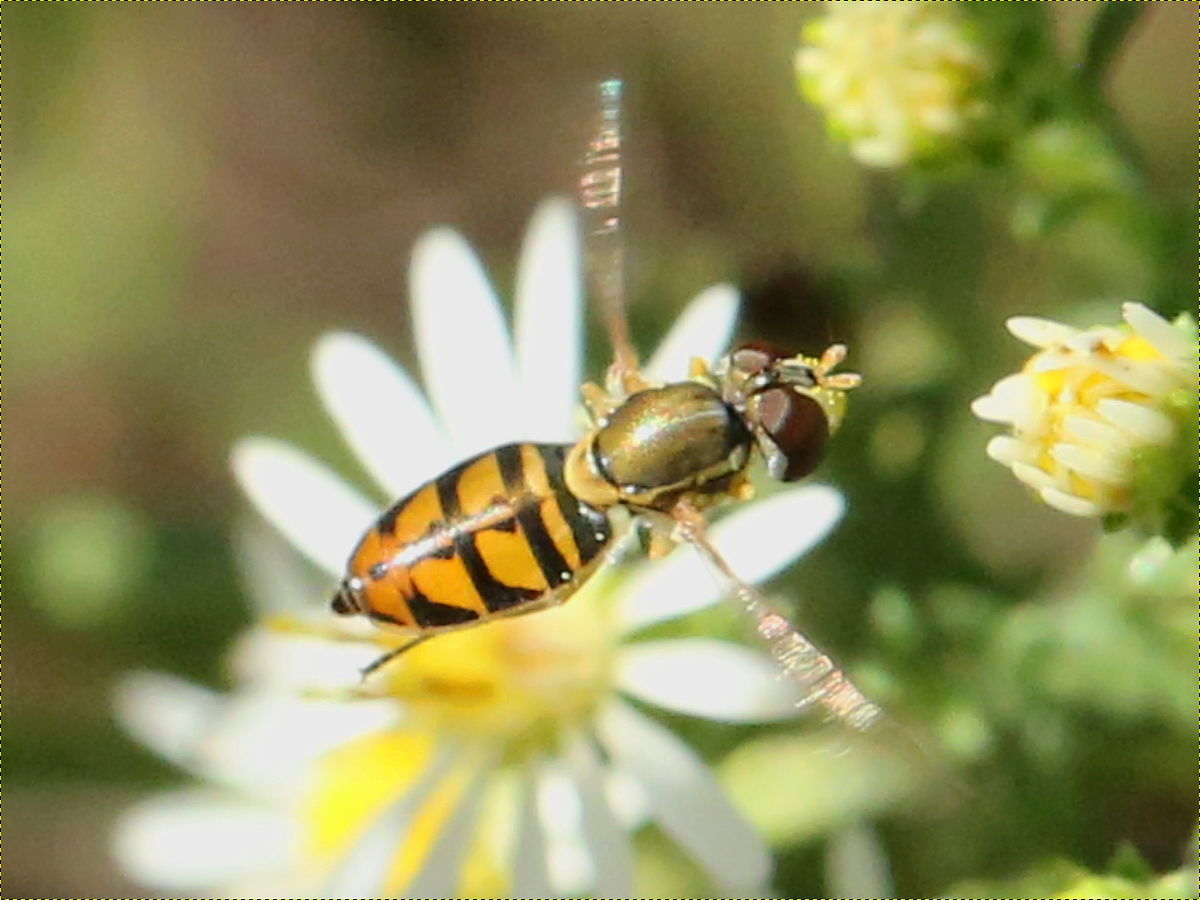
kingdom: Animalia
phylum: Arthropoda
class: Insecta
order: Diptera
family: Syrphidae
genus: Toxomerus
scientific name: Toxomerus marginatus
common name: Syrphid fly
